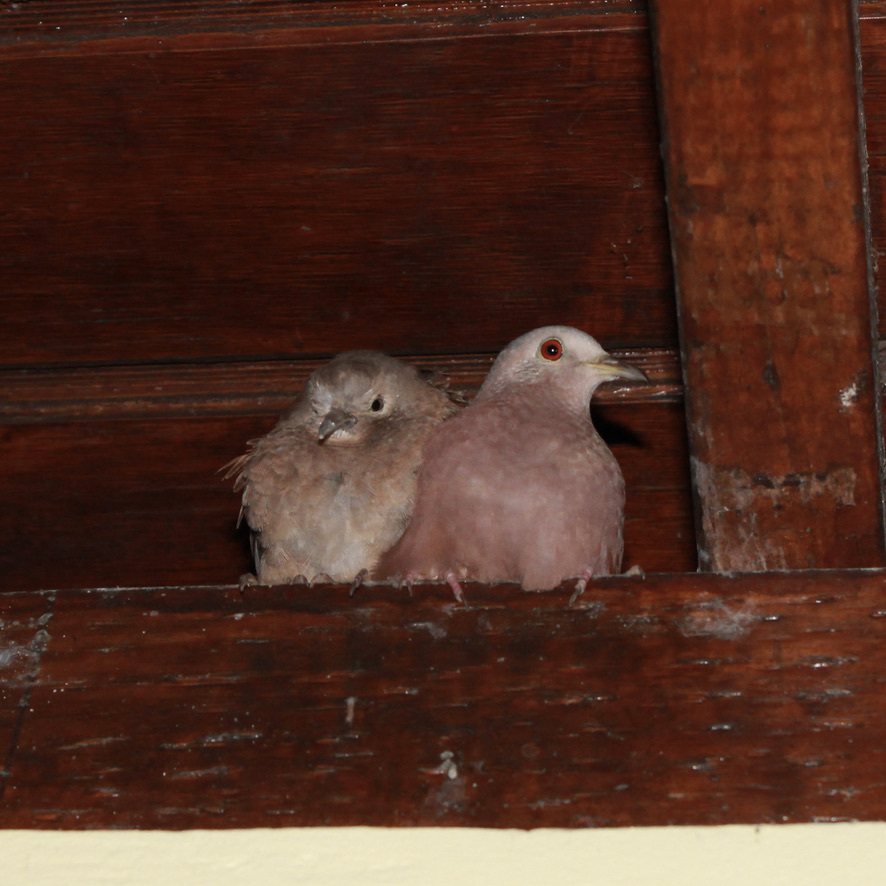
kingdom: Animalia
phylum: Chordata
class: Aves
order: Columbiformes
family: Columbidae
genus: Columbina
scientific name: Columbina talpacoti
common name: Ruddy ground dove
